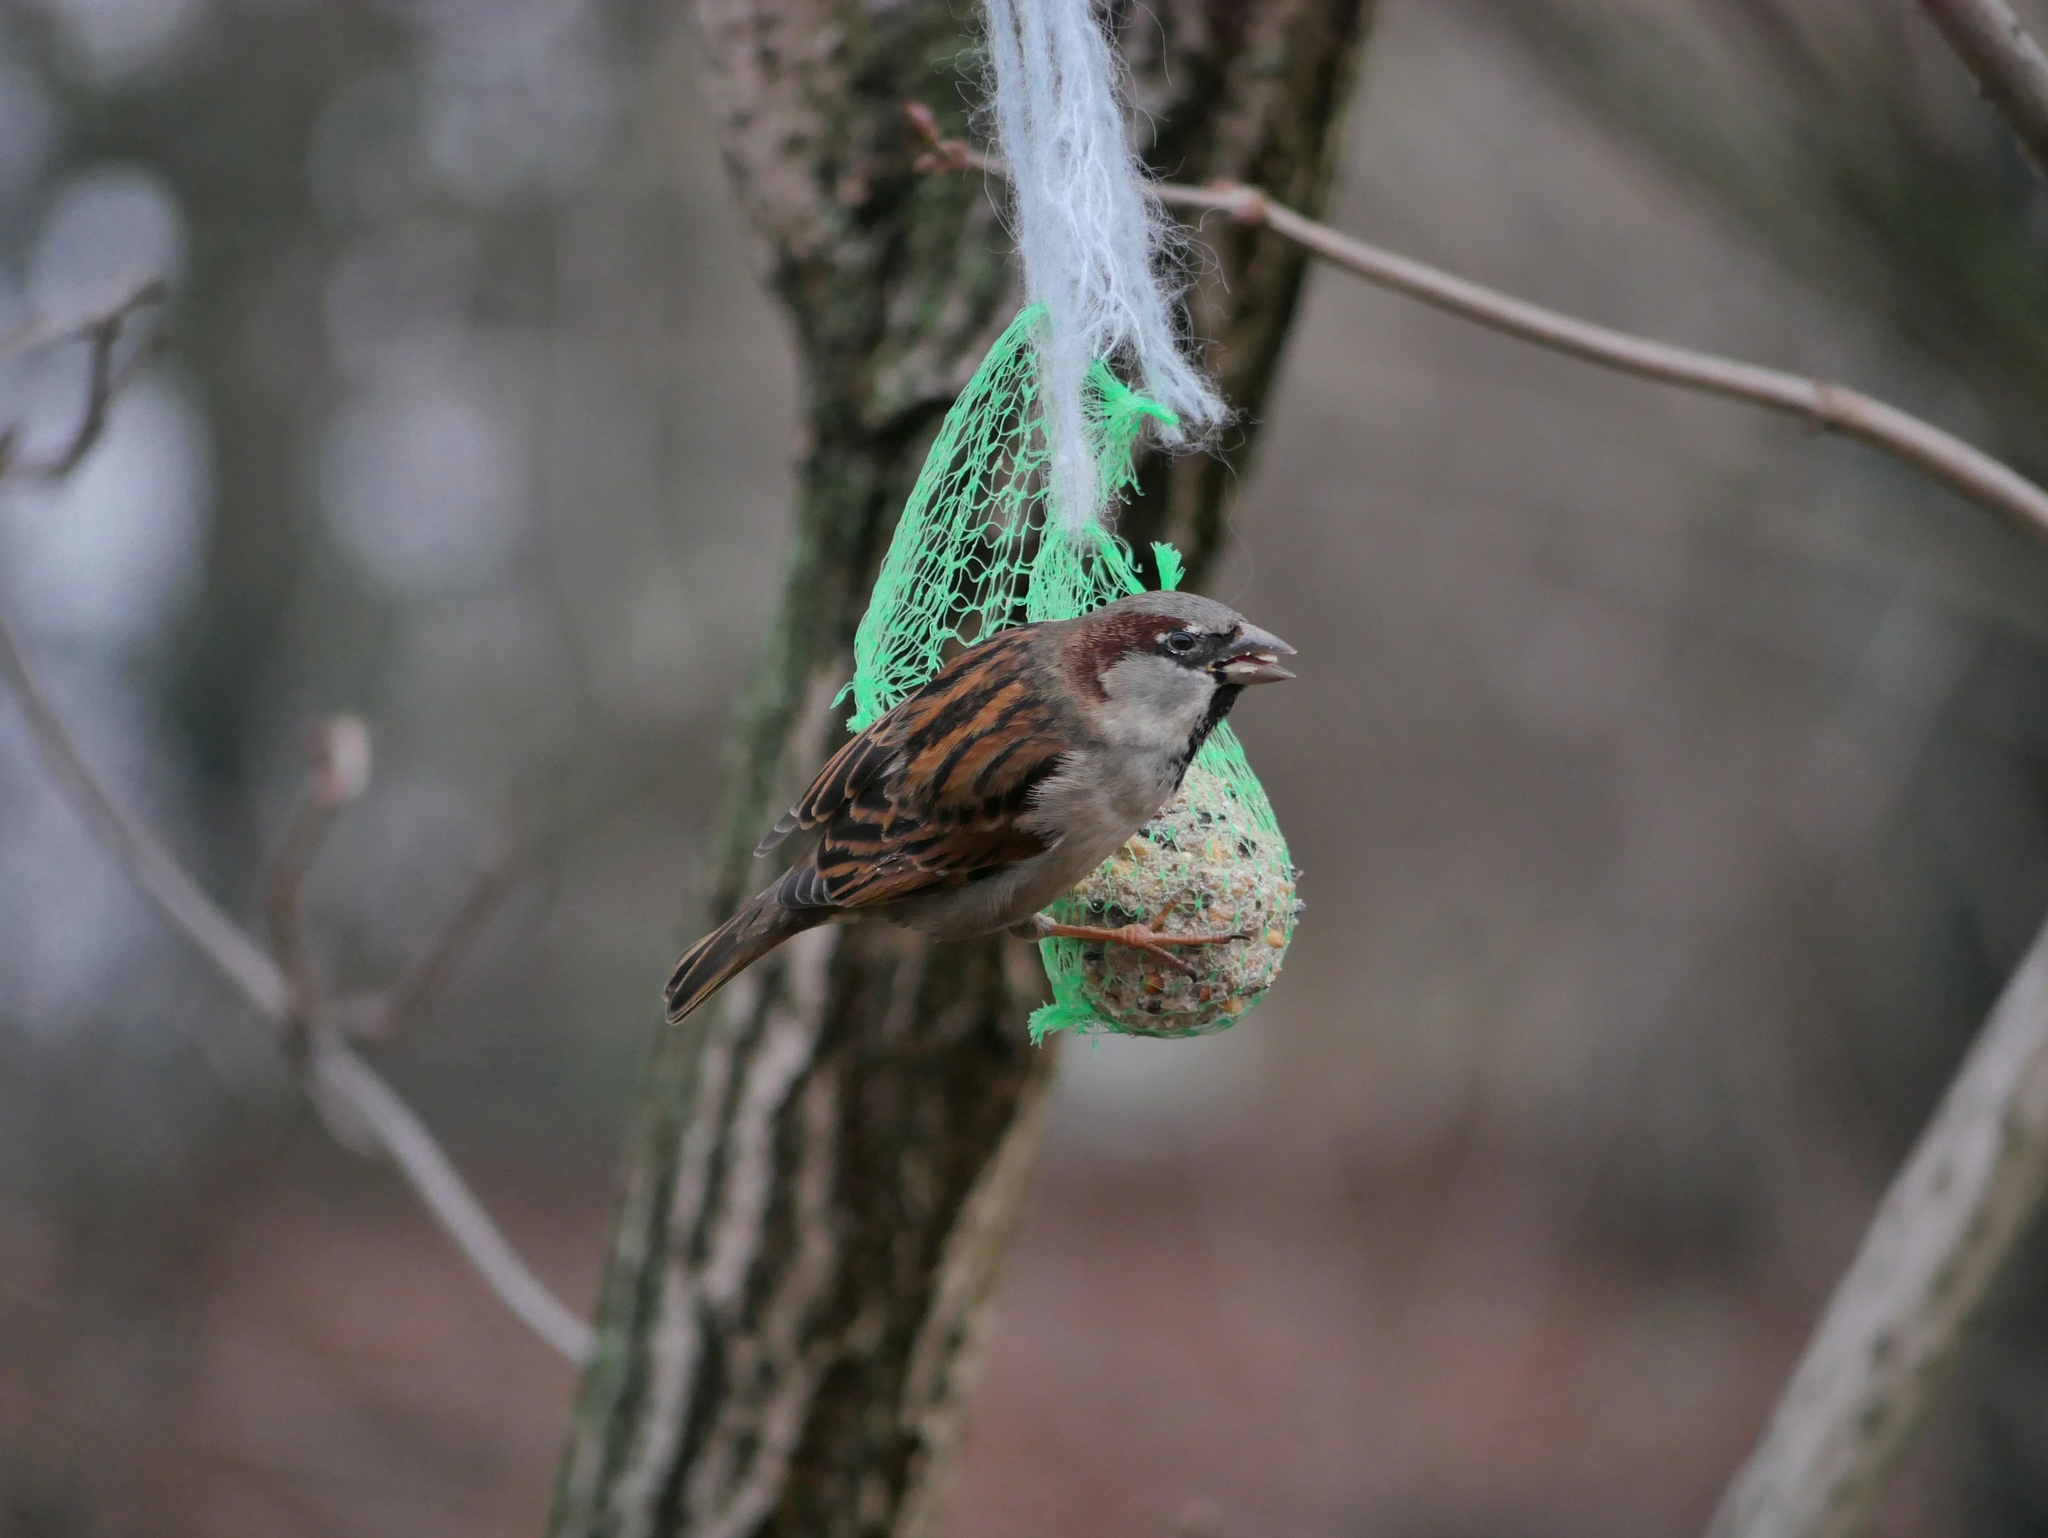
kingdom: Animalia
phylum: Chordata
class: Aves
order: Passeriformes
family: Passeridae
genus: Passer
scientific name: Passer domesticus
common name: House sparrow
